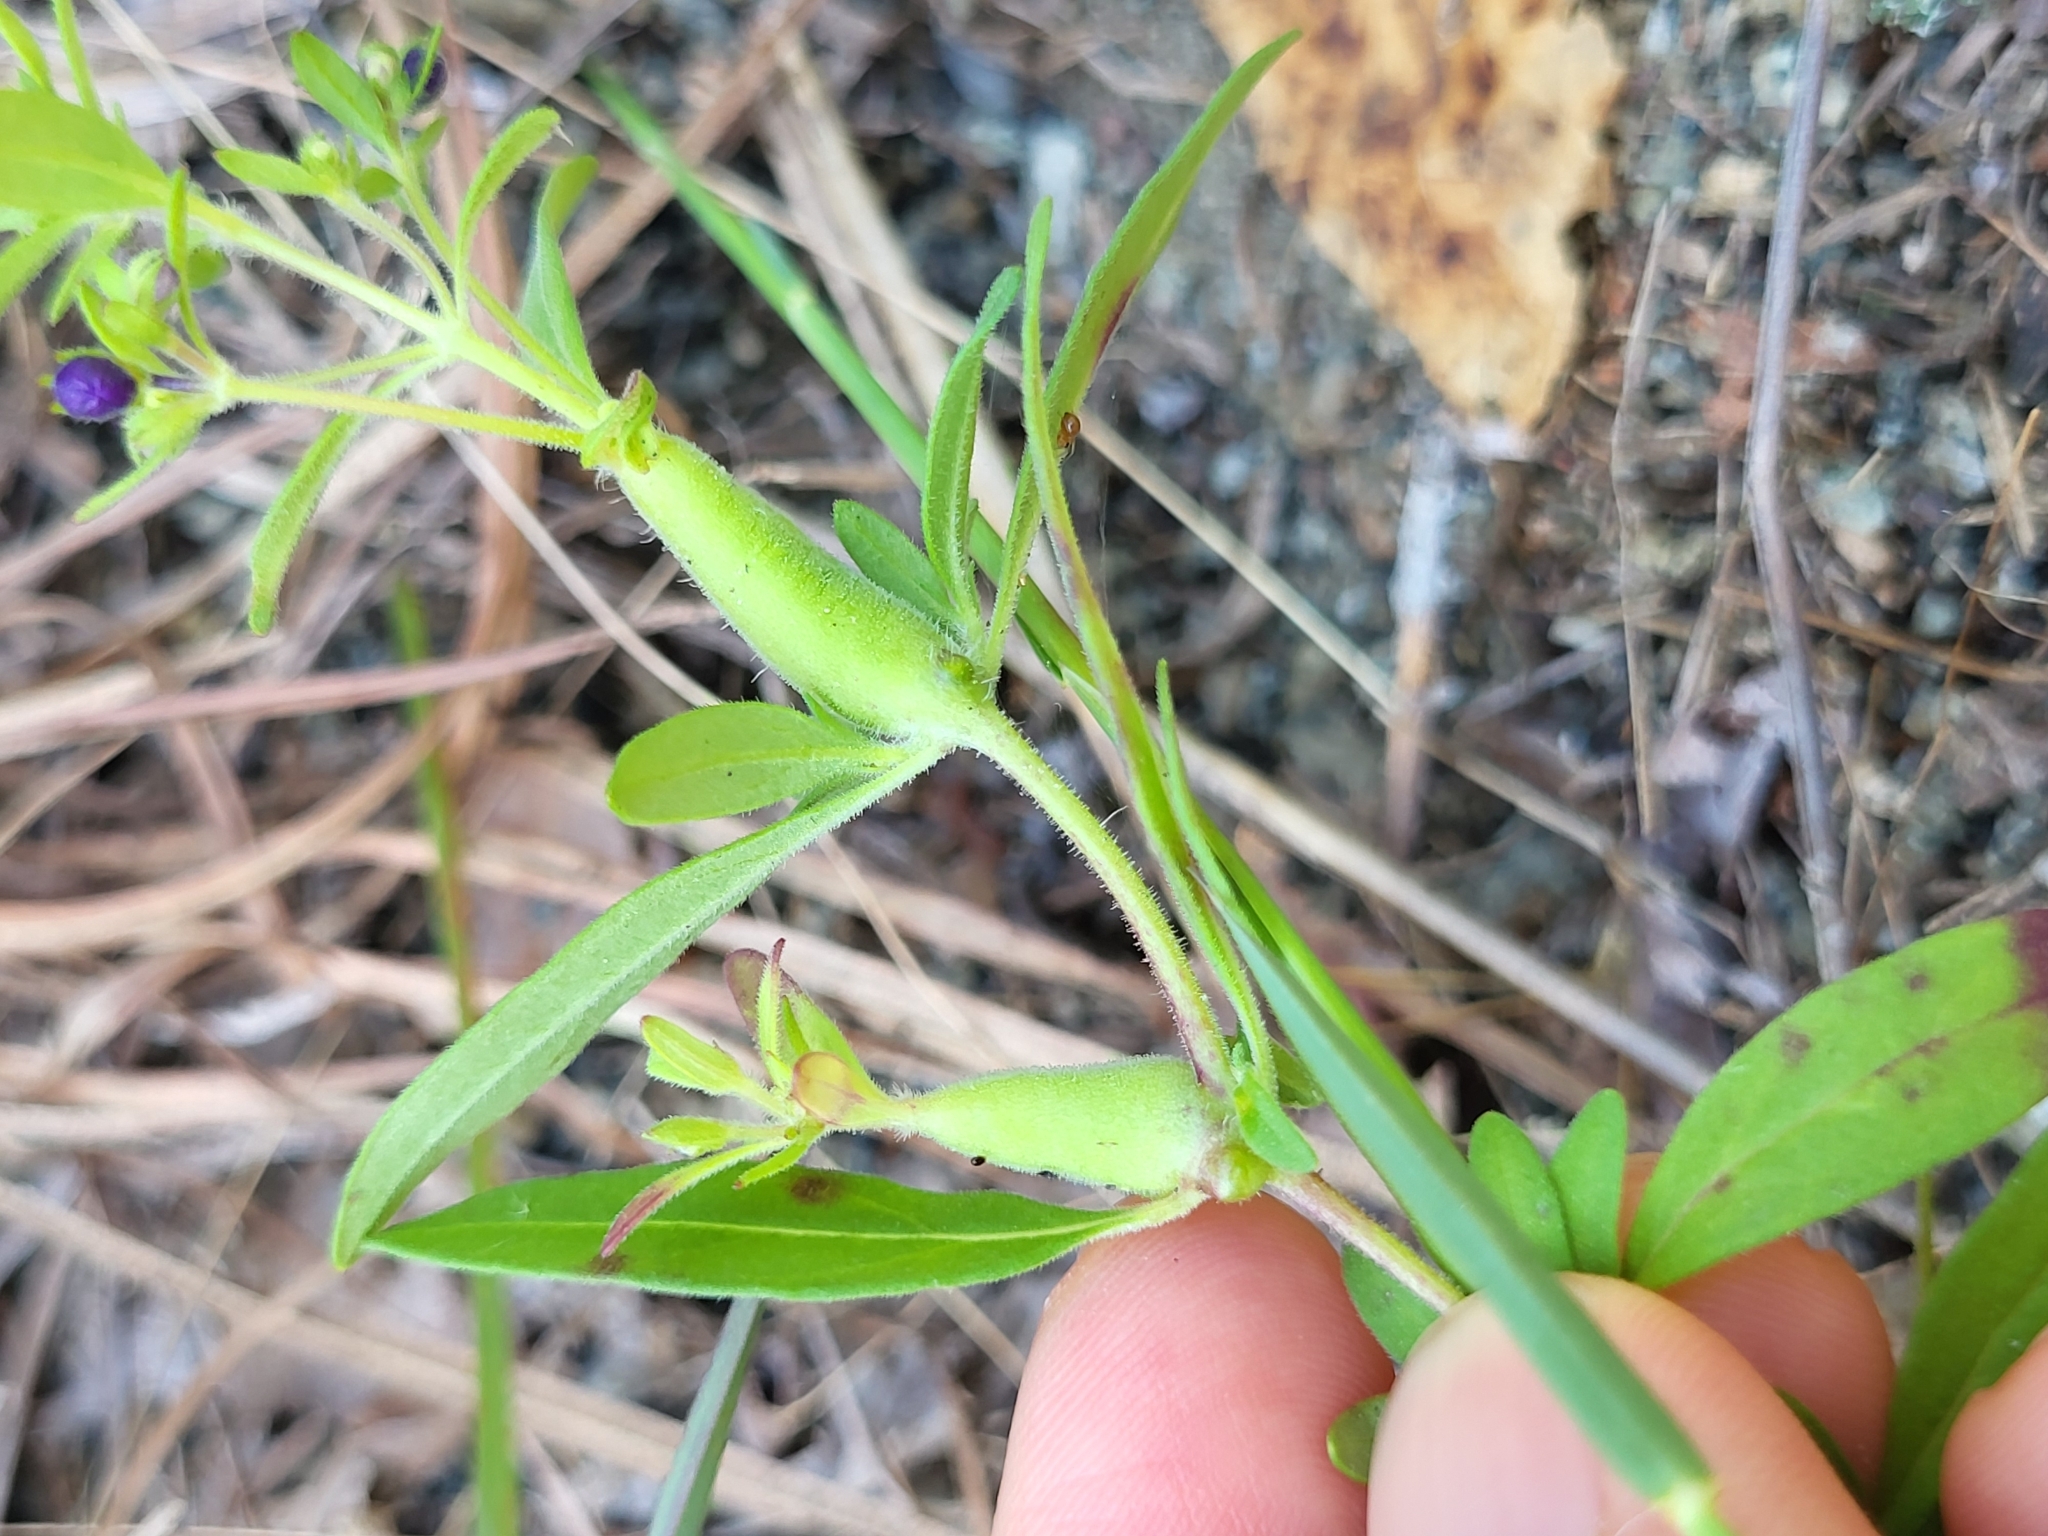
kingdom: Animalia
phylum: Arthropoda
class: Insecta
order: Lepidoptera
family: Cosmopterigidae
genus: Eteobalea
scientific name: Eteobalea sexnotella
